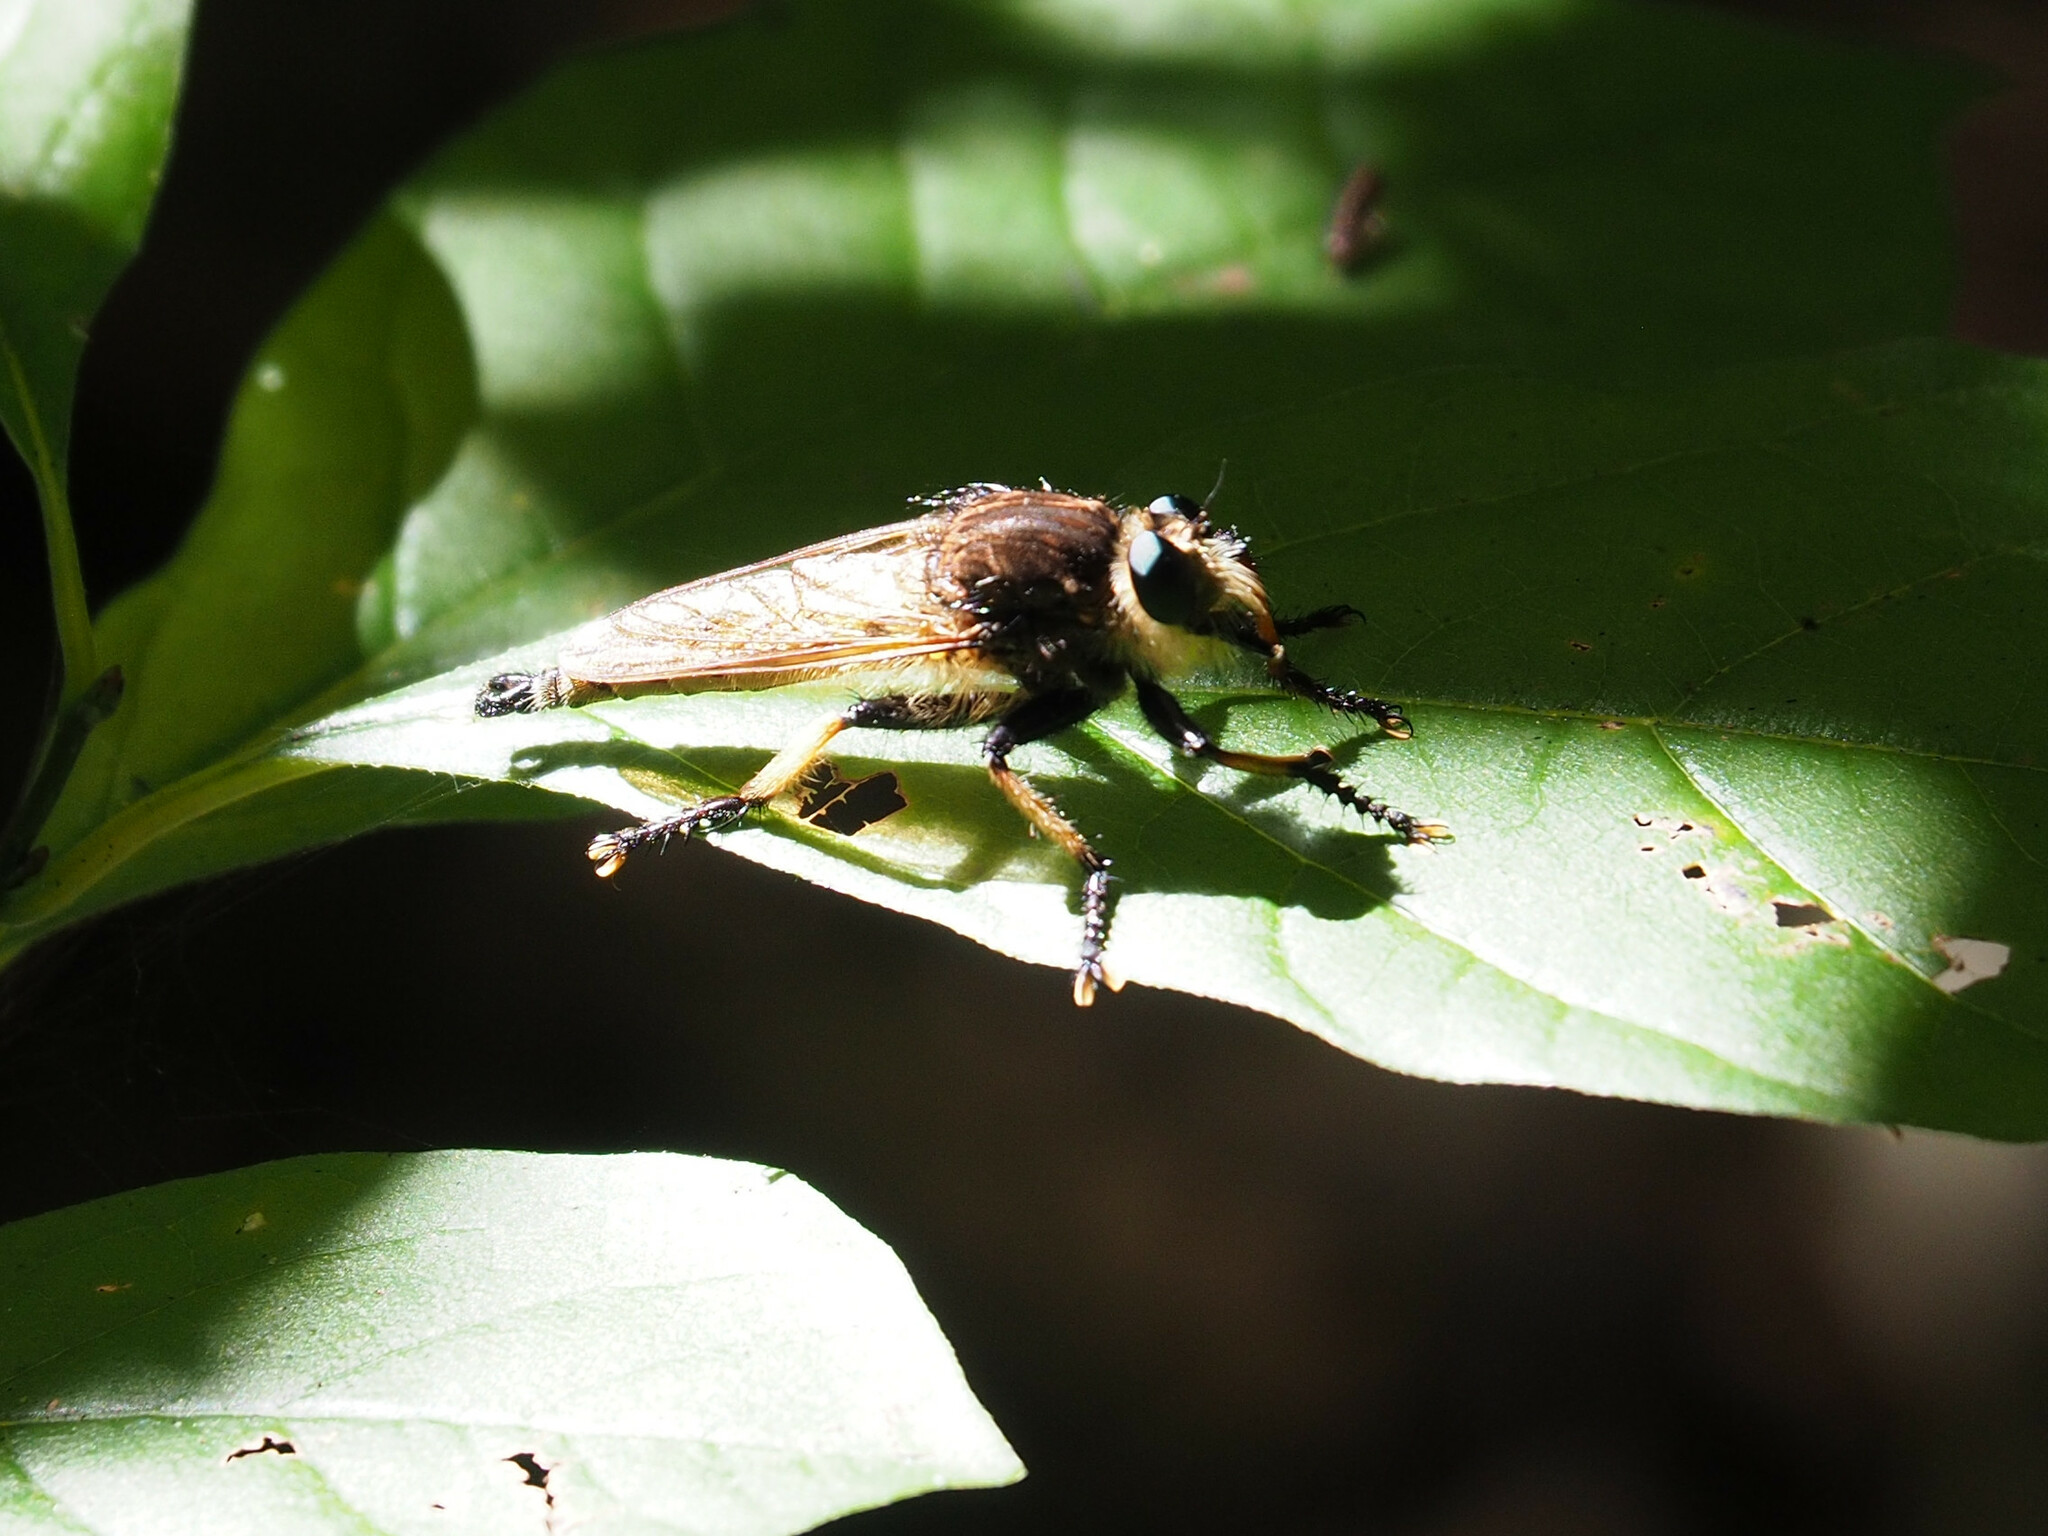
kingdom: Animalia
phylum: Arthropoda
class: Insecta
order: Diptera
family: Asilidae
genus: Promachus
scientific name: Promachus rufipes
